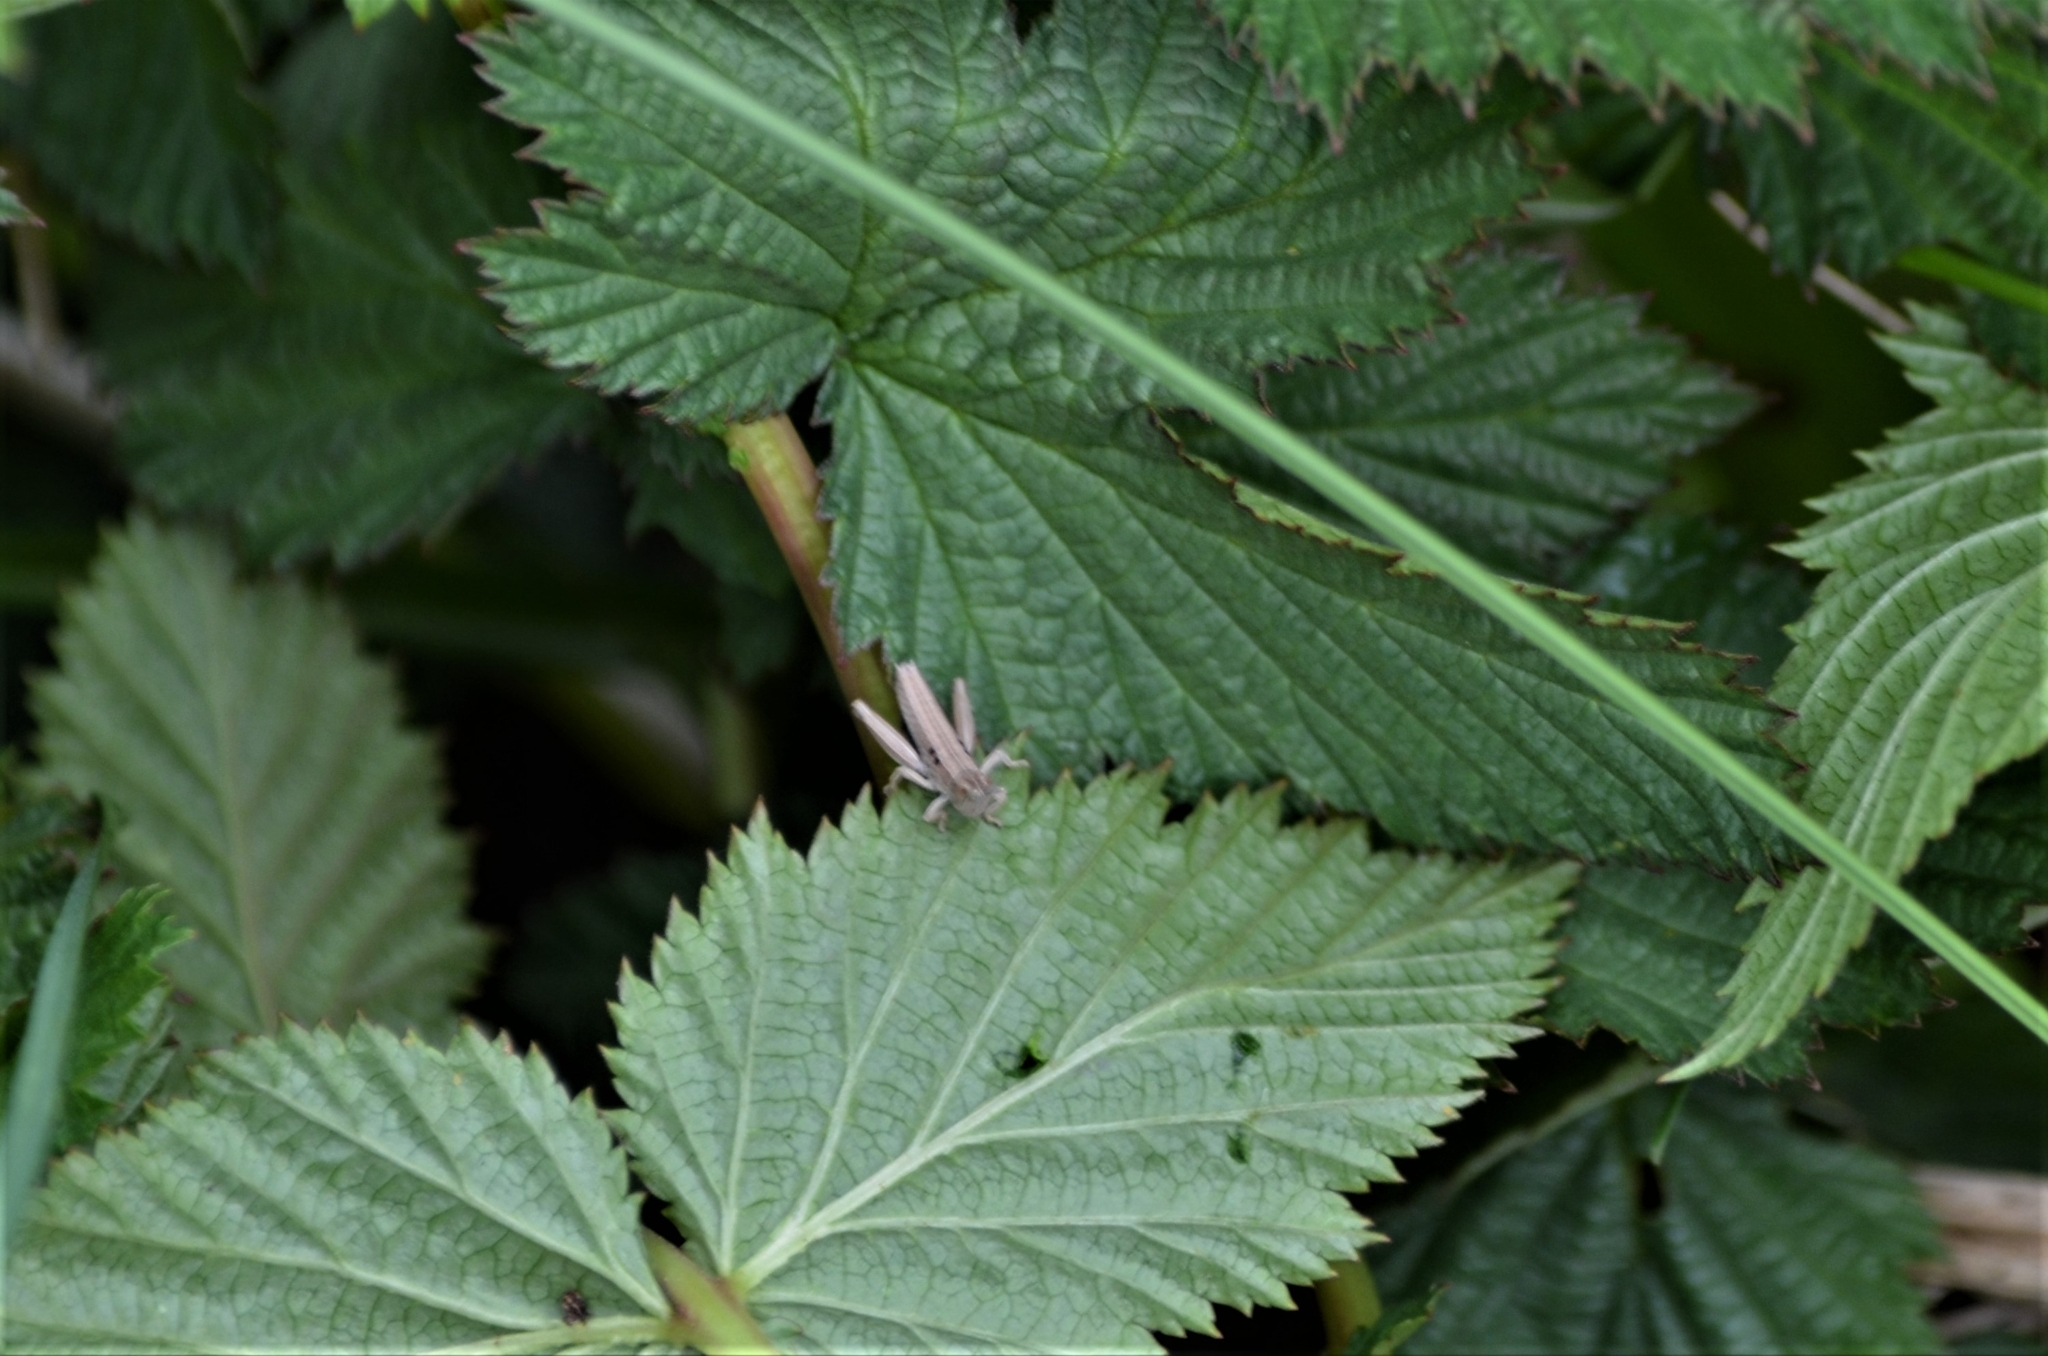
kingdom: Animalia
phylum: Arthropoda
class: Insecta
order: Orthoptera
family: Acrididae
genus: Euthystira
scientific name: Euthystira brachyptera
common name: Small gold grasshopper
